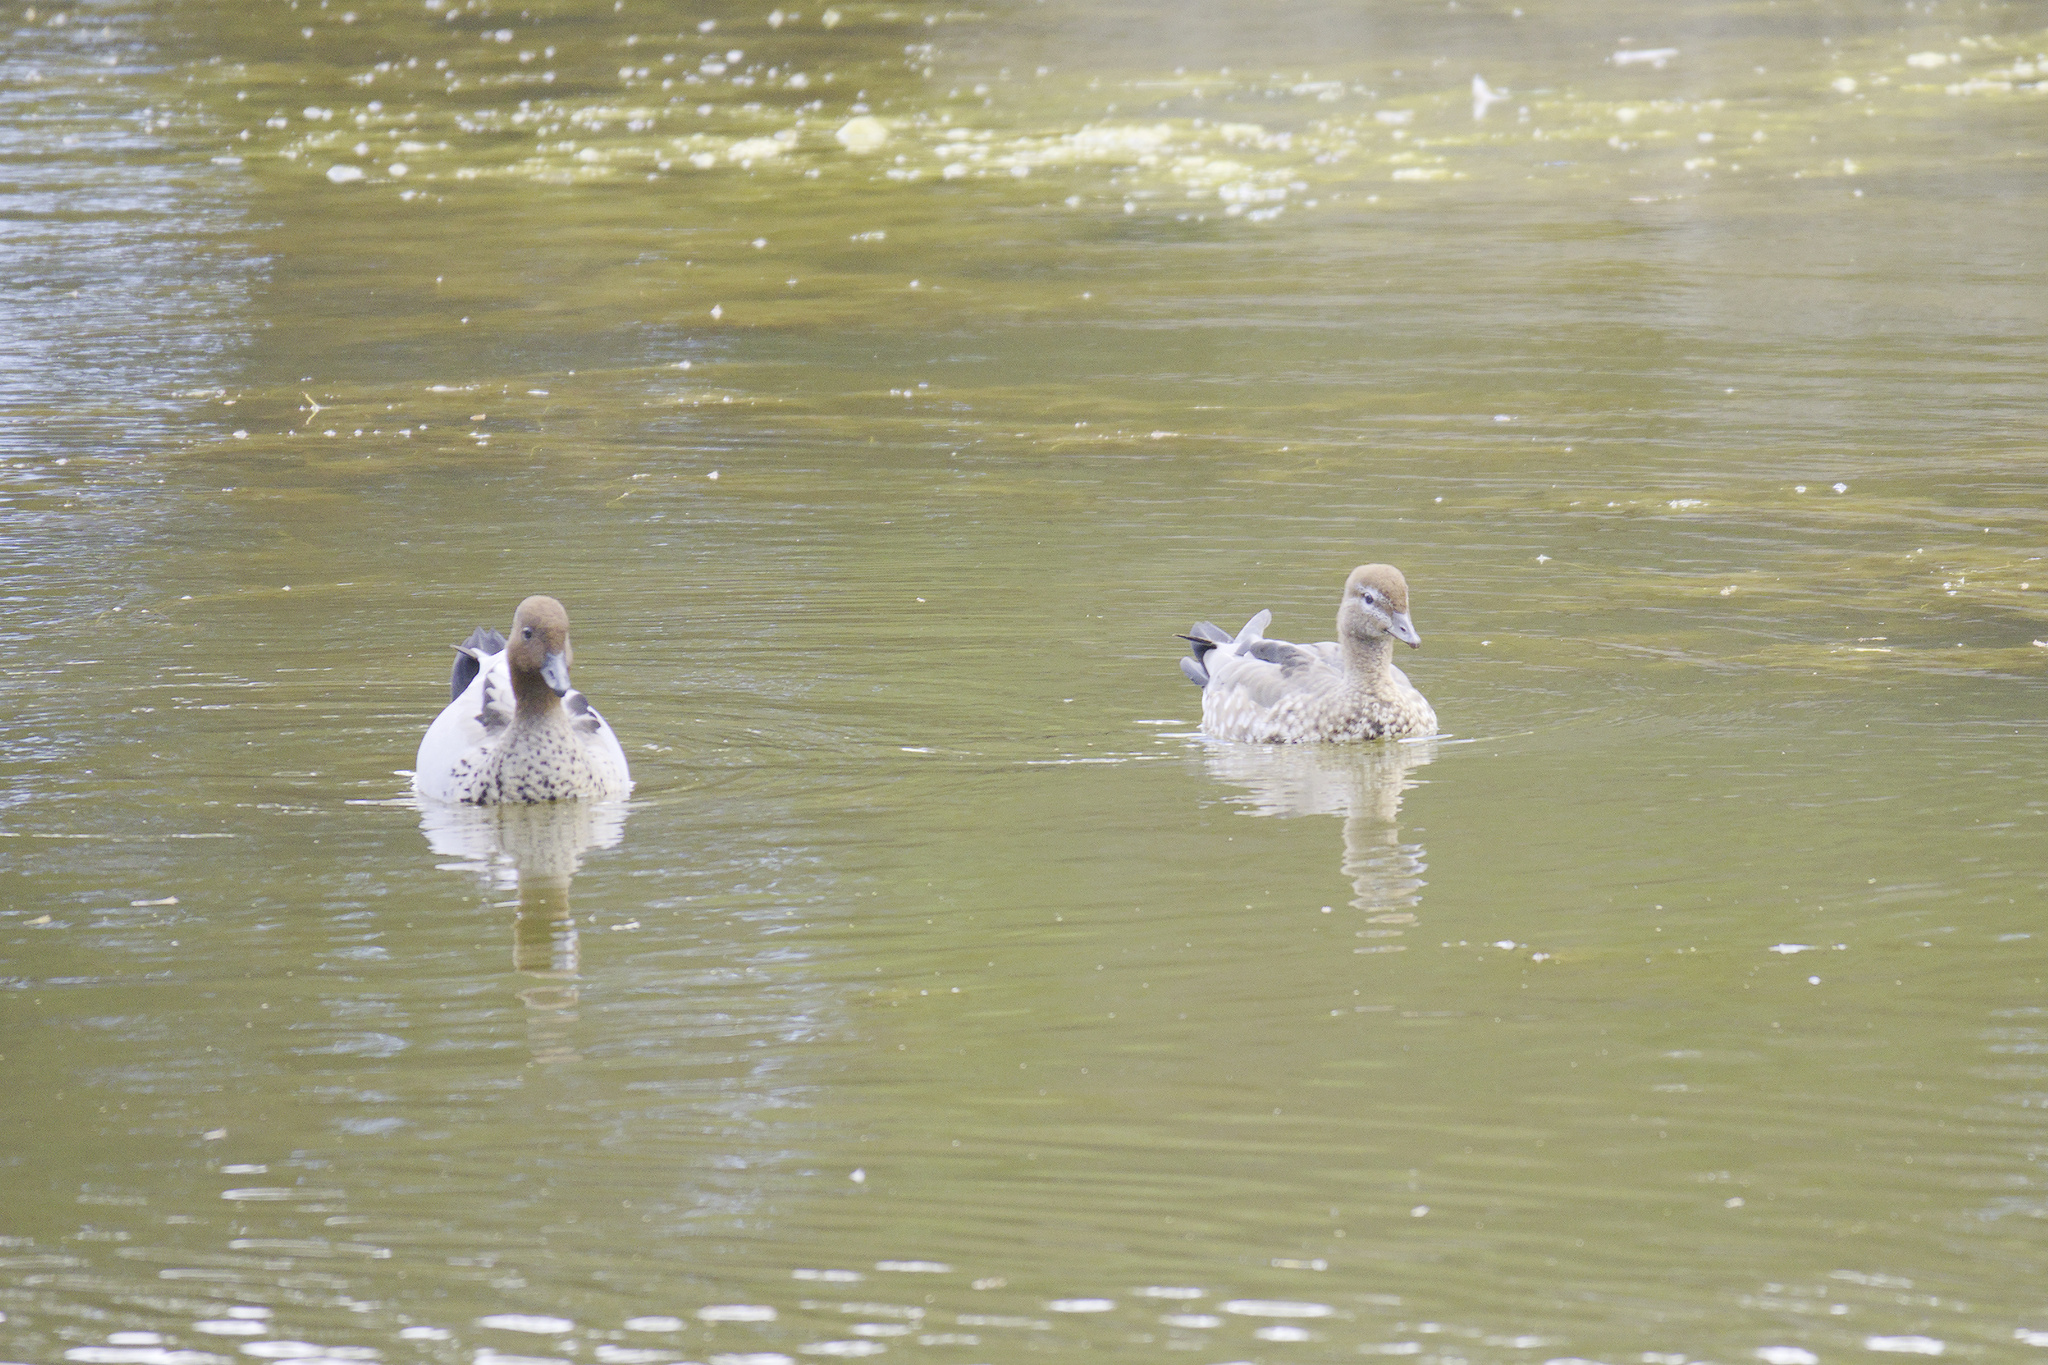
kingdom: Animalia
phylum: Chordata
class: Aves
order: Anseriformes
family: Anatidae
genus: Chenonetta
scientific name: Chenonetta jubata
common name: Maned duck
